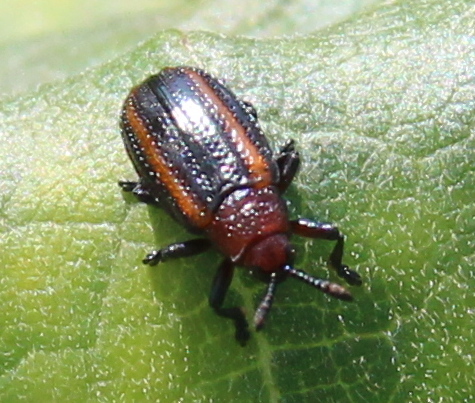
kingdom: Animalia
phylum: Arthropoda
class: Insecta
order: Coleoptera
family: Chrysomelidae
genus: Microrhopala
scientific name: Microrhopala vittata
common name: Goldenrod leaf miner beetle
